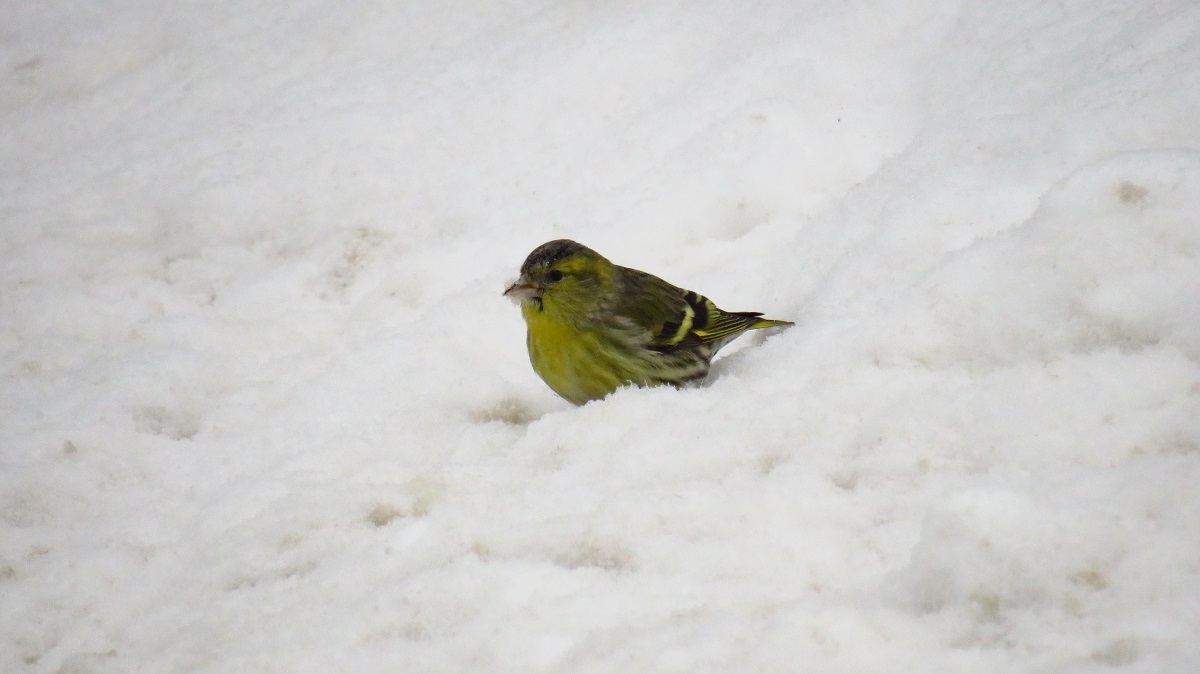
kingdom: Animalia
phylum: Chordata
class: Aves
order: Passeriformes
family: Fringillidae
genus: Spinus
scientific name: Spinus spinus
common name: Eurasian siskin
